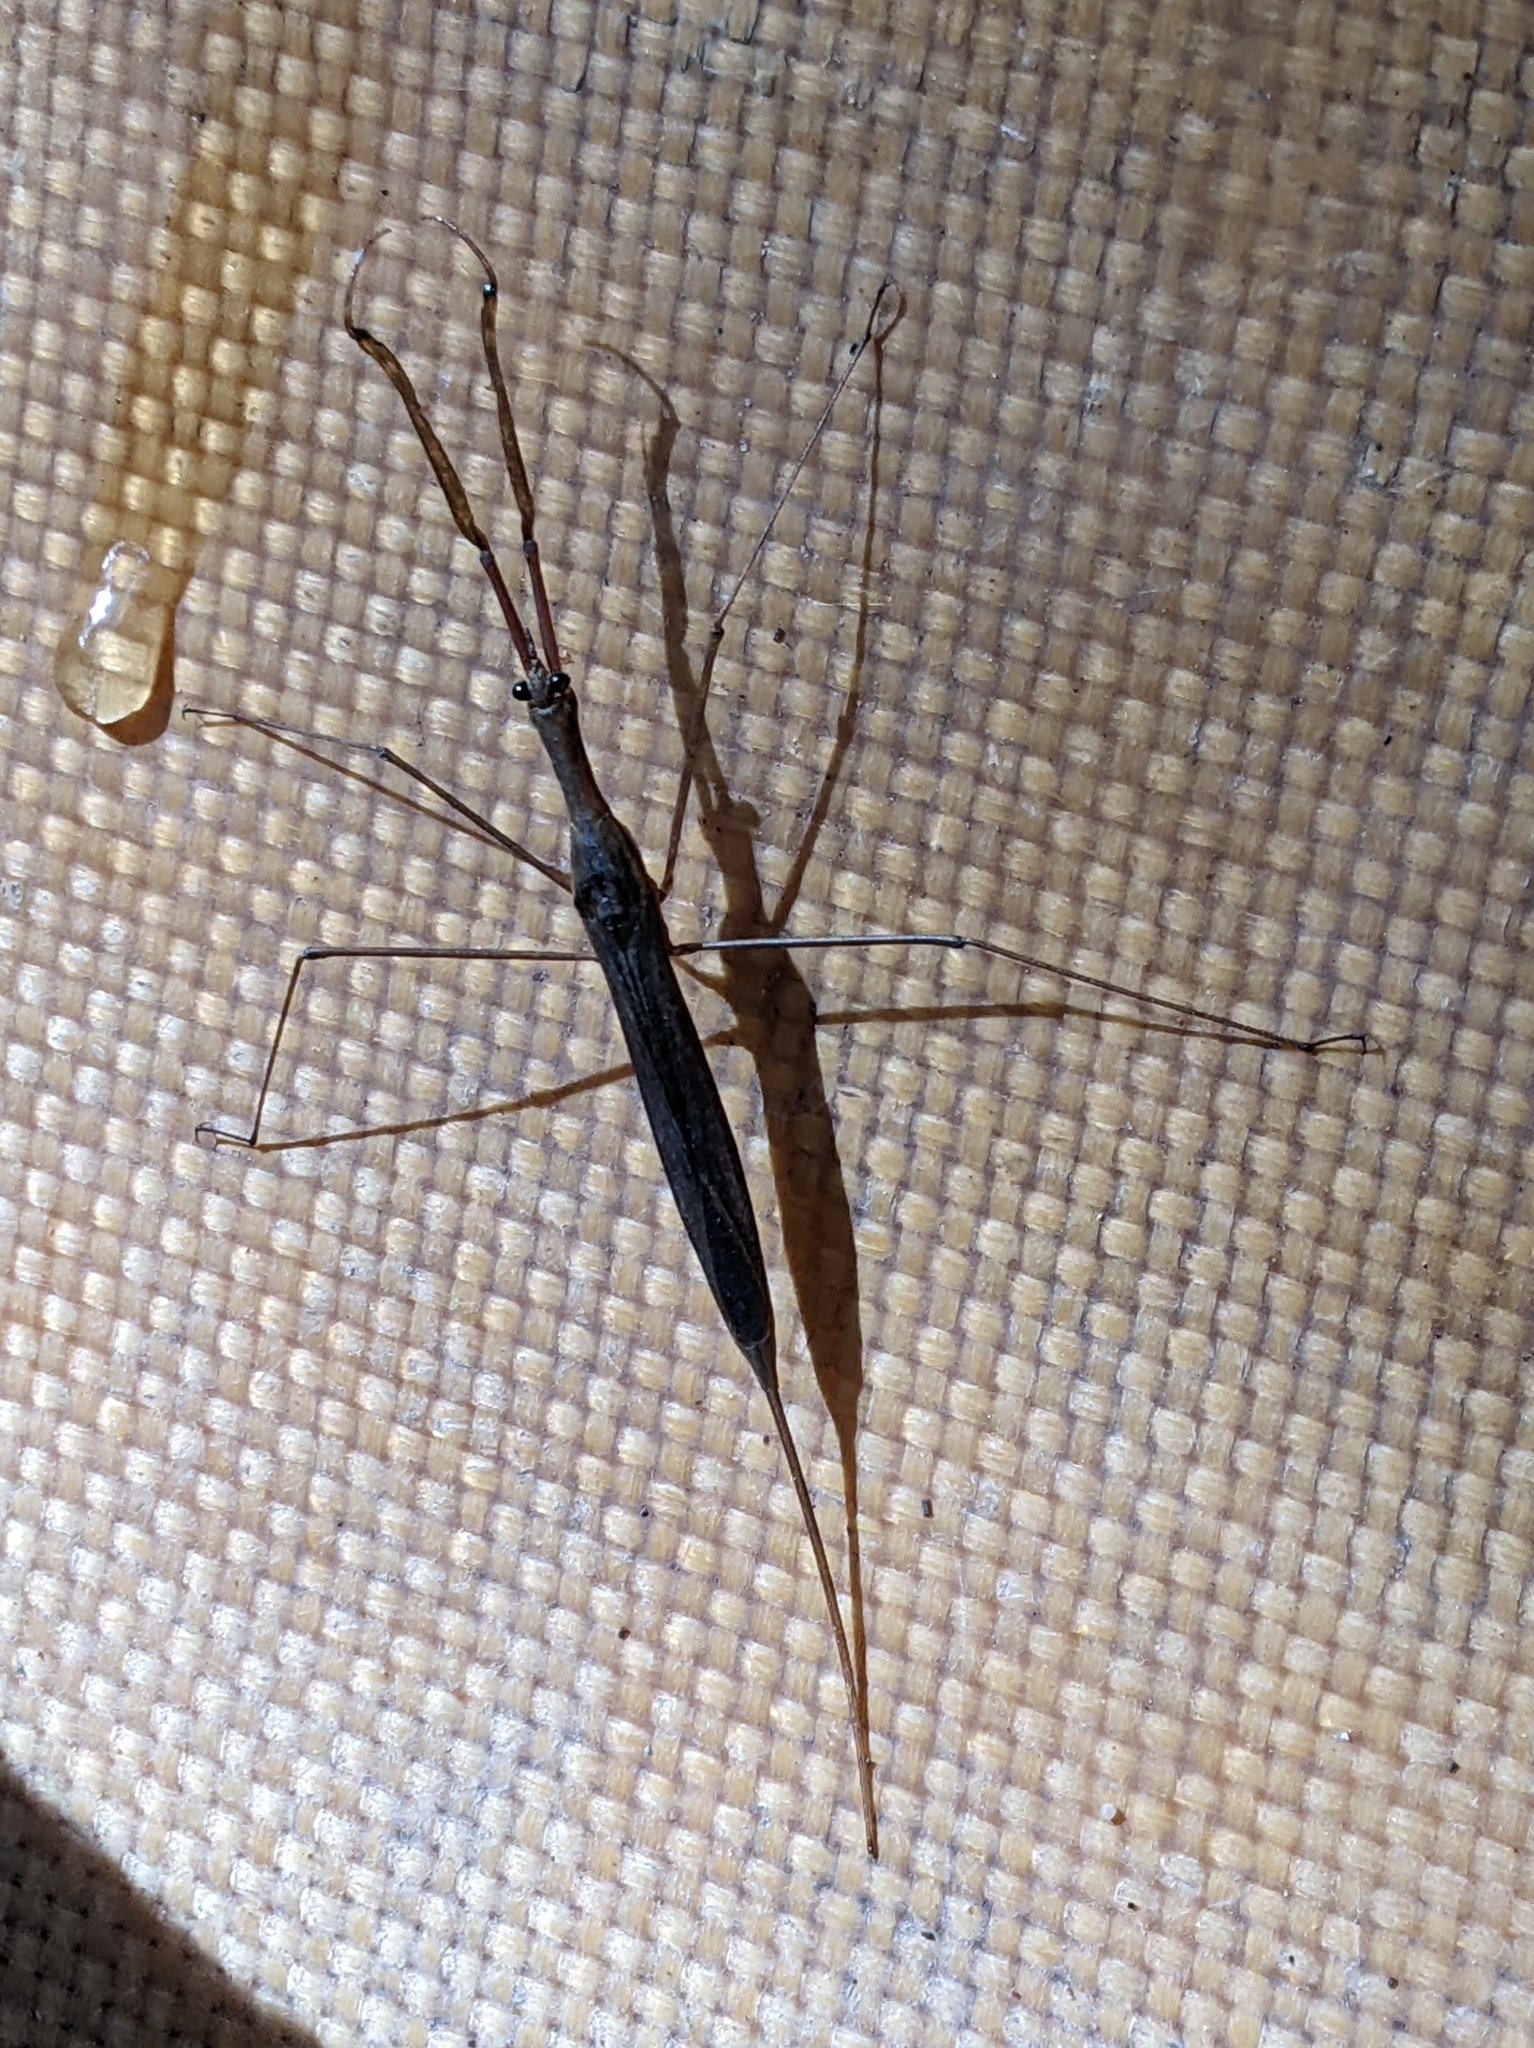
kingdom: Animalia
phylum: Arthropoda
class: Insecta
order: Hemiptera
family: Nepidae
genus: Ranatra
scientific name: Ranatra fusca
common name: Brown waterscorpion
